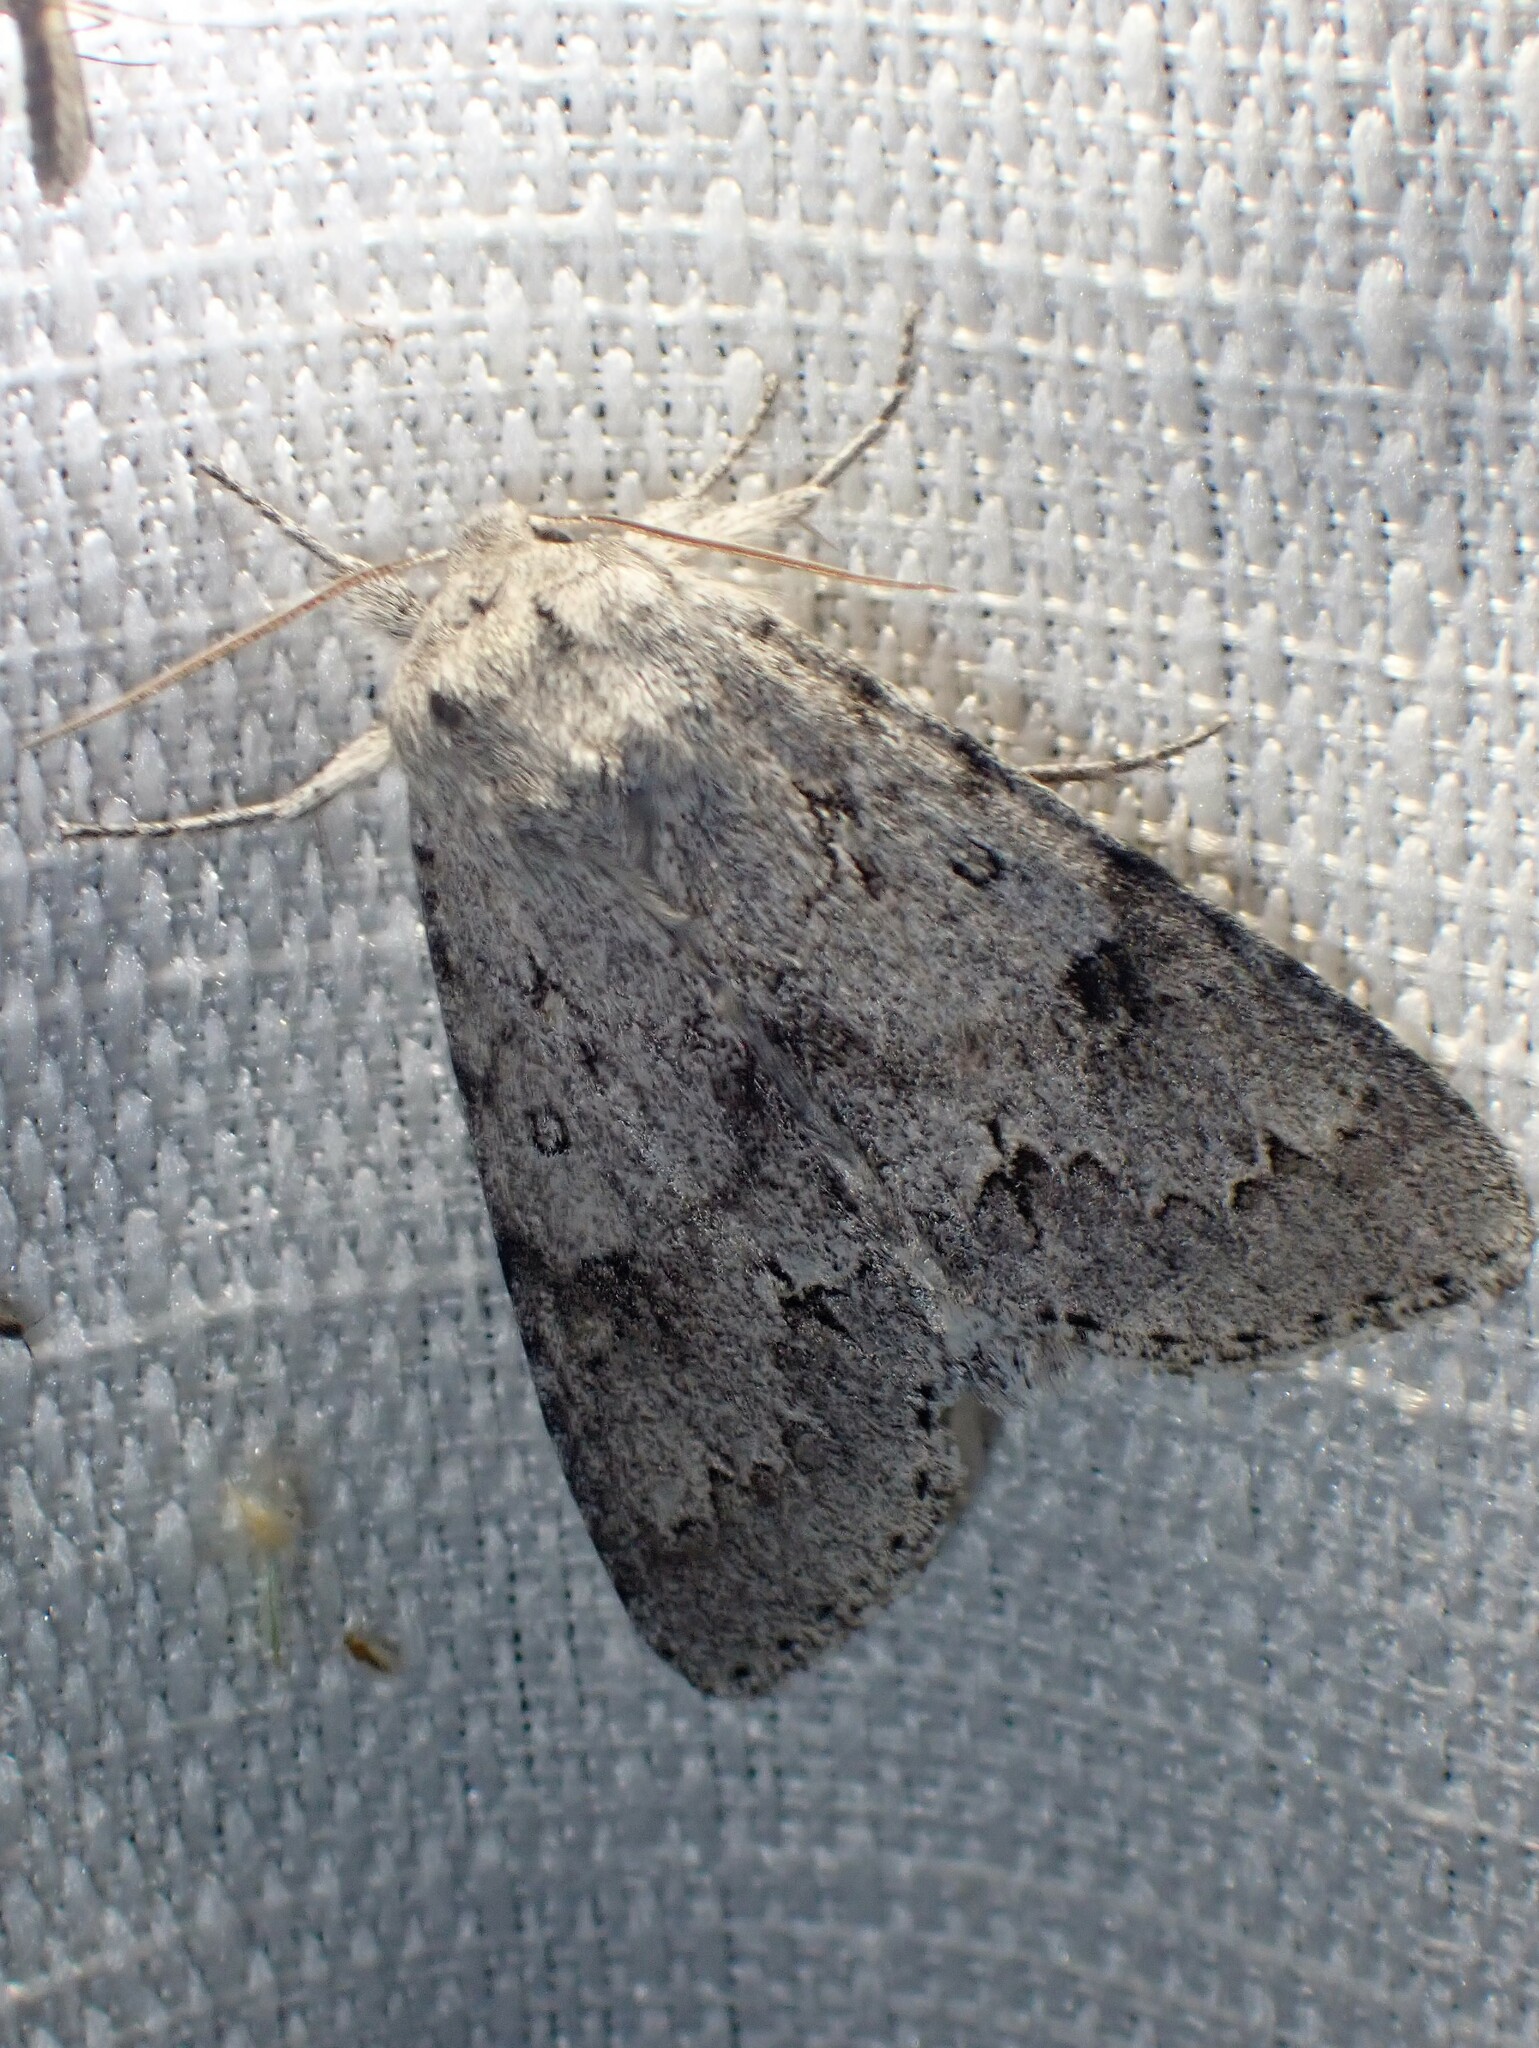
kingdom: Animalia
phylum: Arthropoda
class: Insecta
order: Lepidoptera
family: Noctuidae
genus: Acronicta
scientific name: Acronicta insita
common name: Large gray dagger
